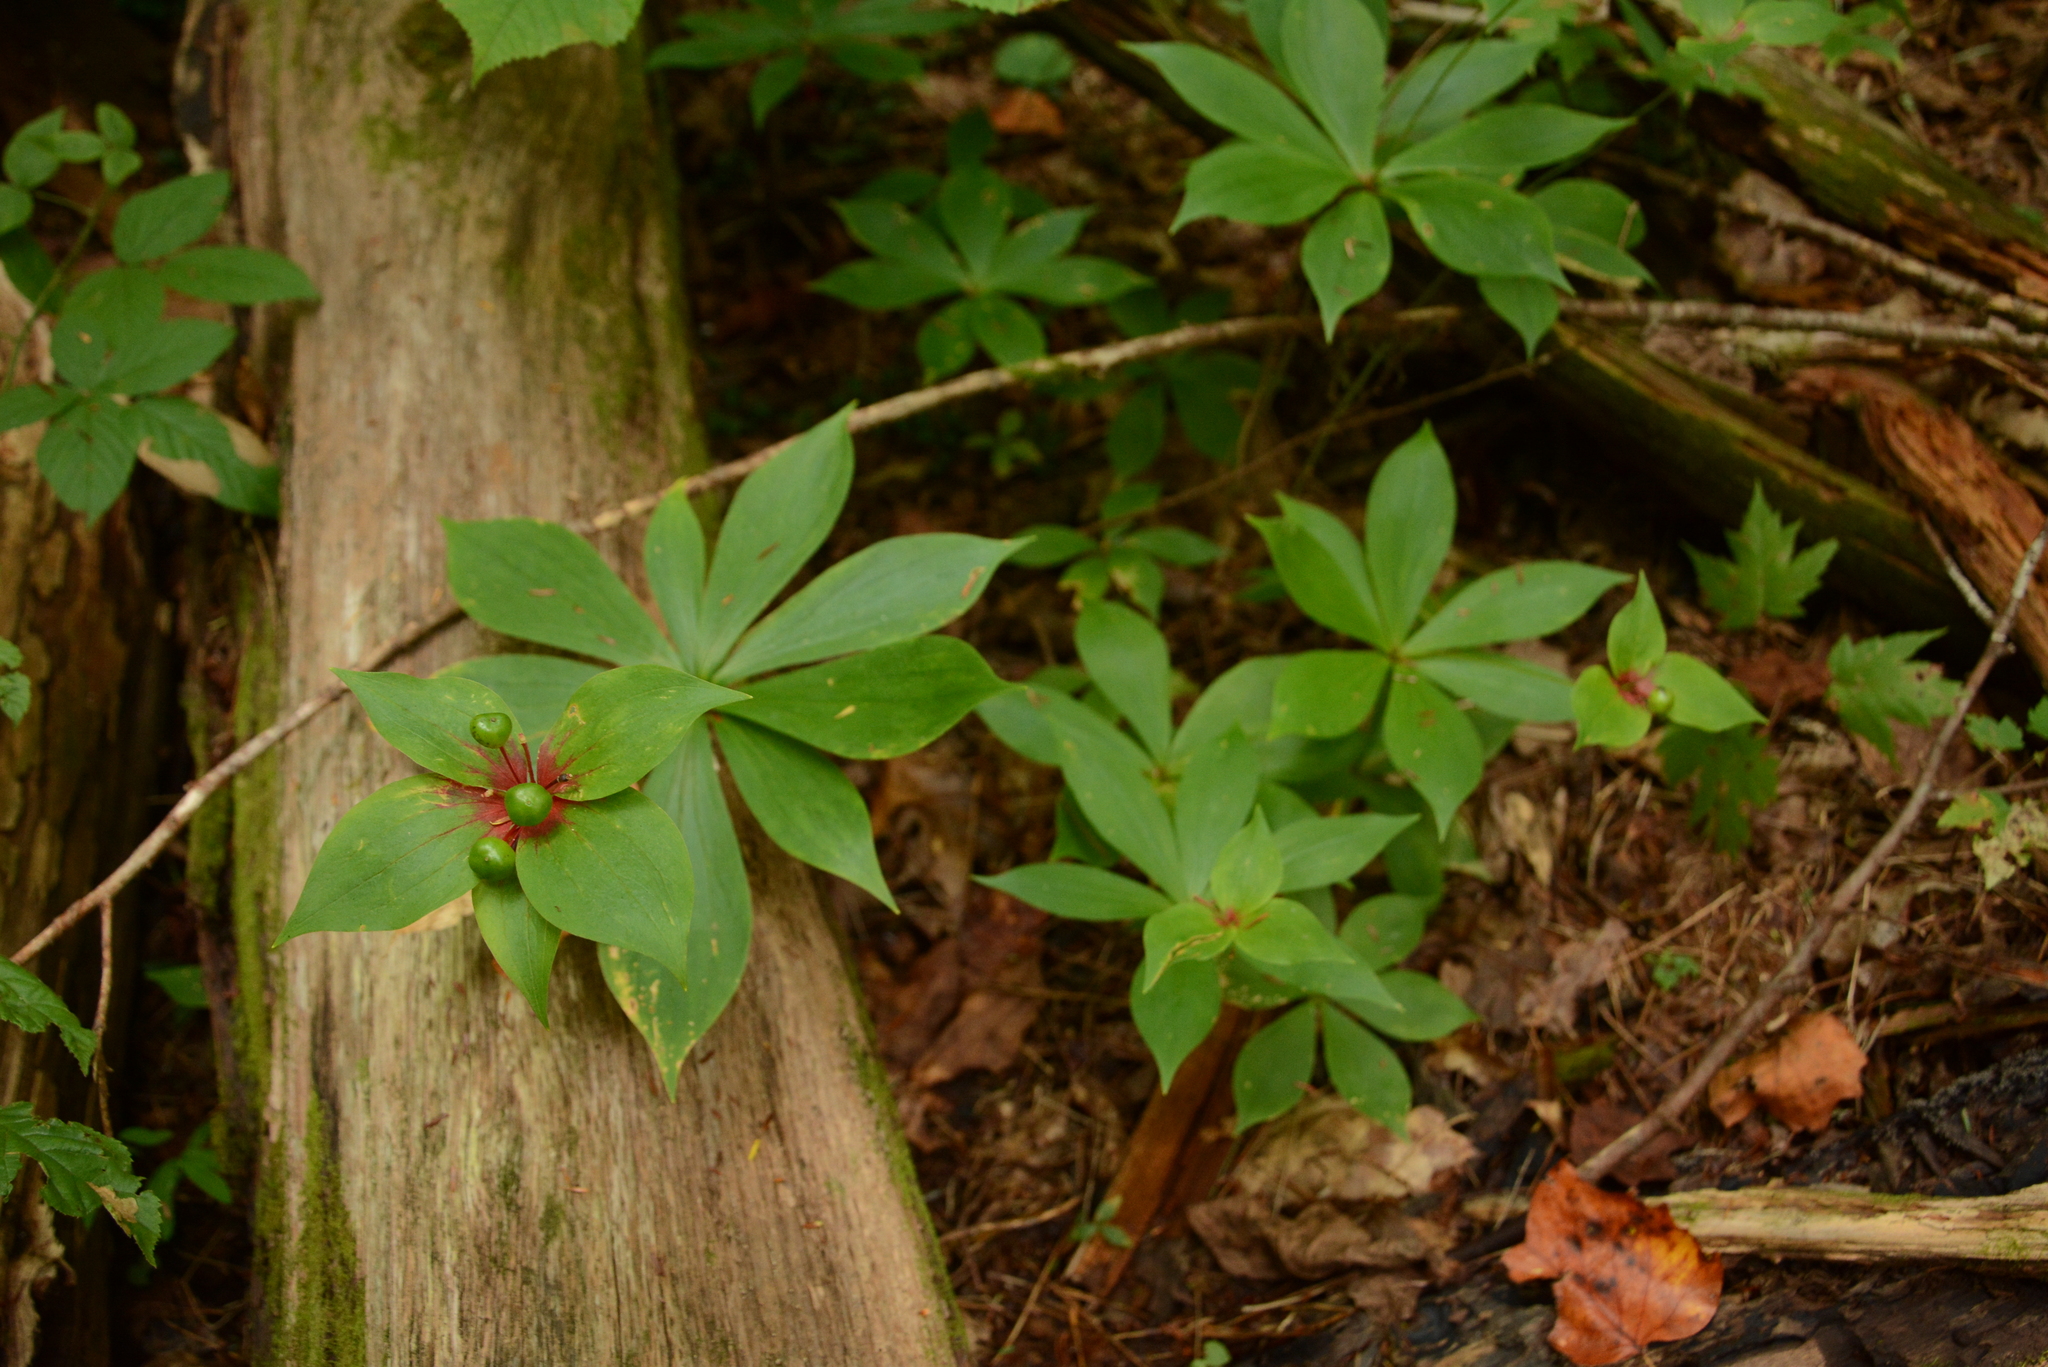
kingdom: Plantae
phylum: Tracheophyta
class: Liliopsida
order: Liliales
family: Liliaceae
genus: Medeola
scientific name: Medeola virginiana
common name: Indian cucumber-root
